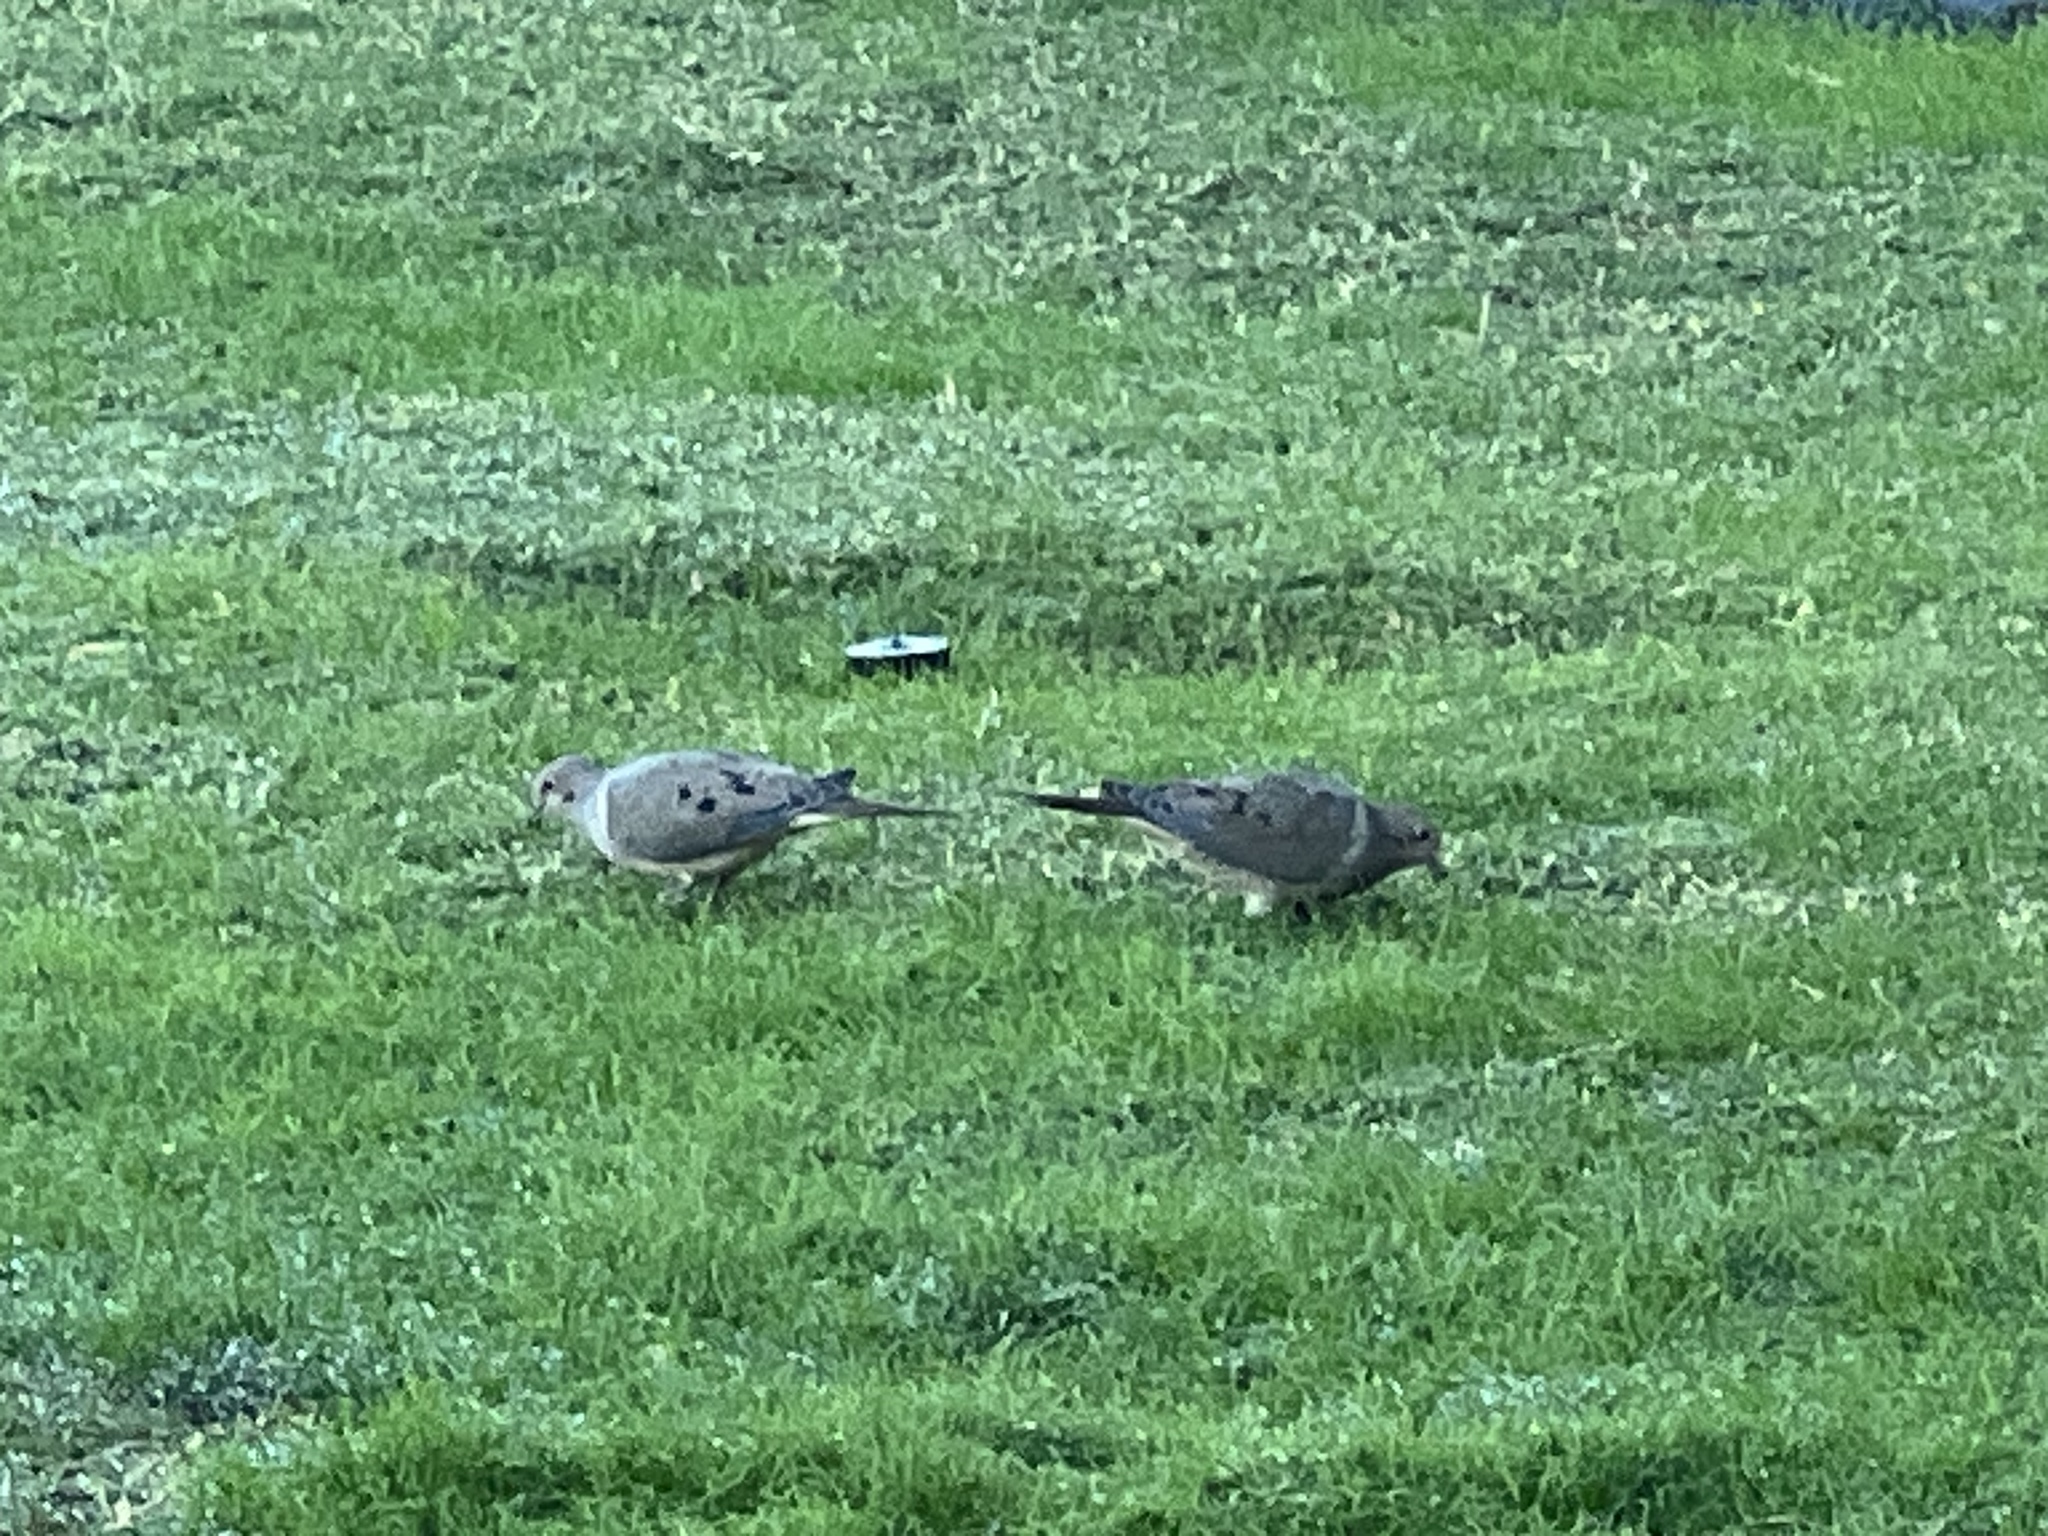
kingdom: Animalia
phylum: Chordata
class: Aves
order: Columbiformes
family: Columbidae
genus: Zenaida
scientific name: Zenaida macroura
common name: Mourning dove
